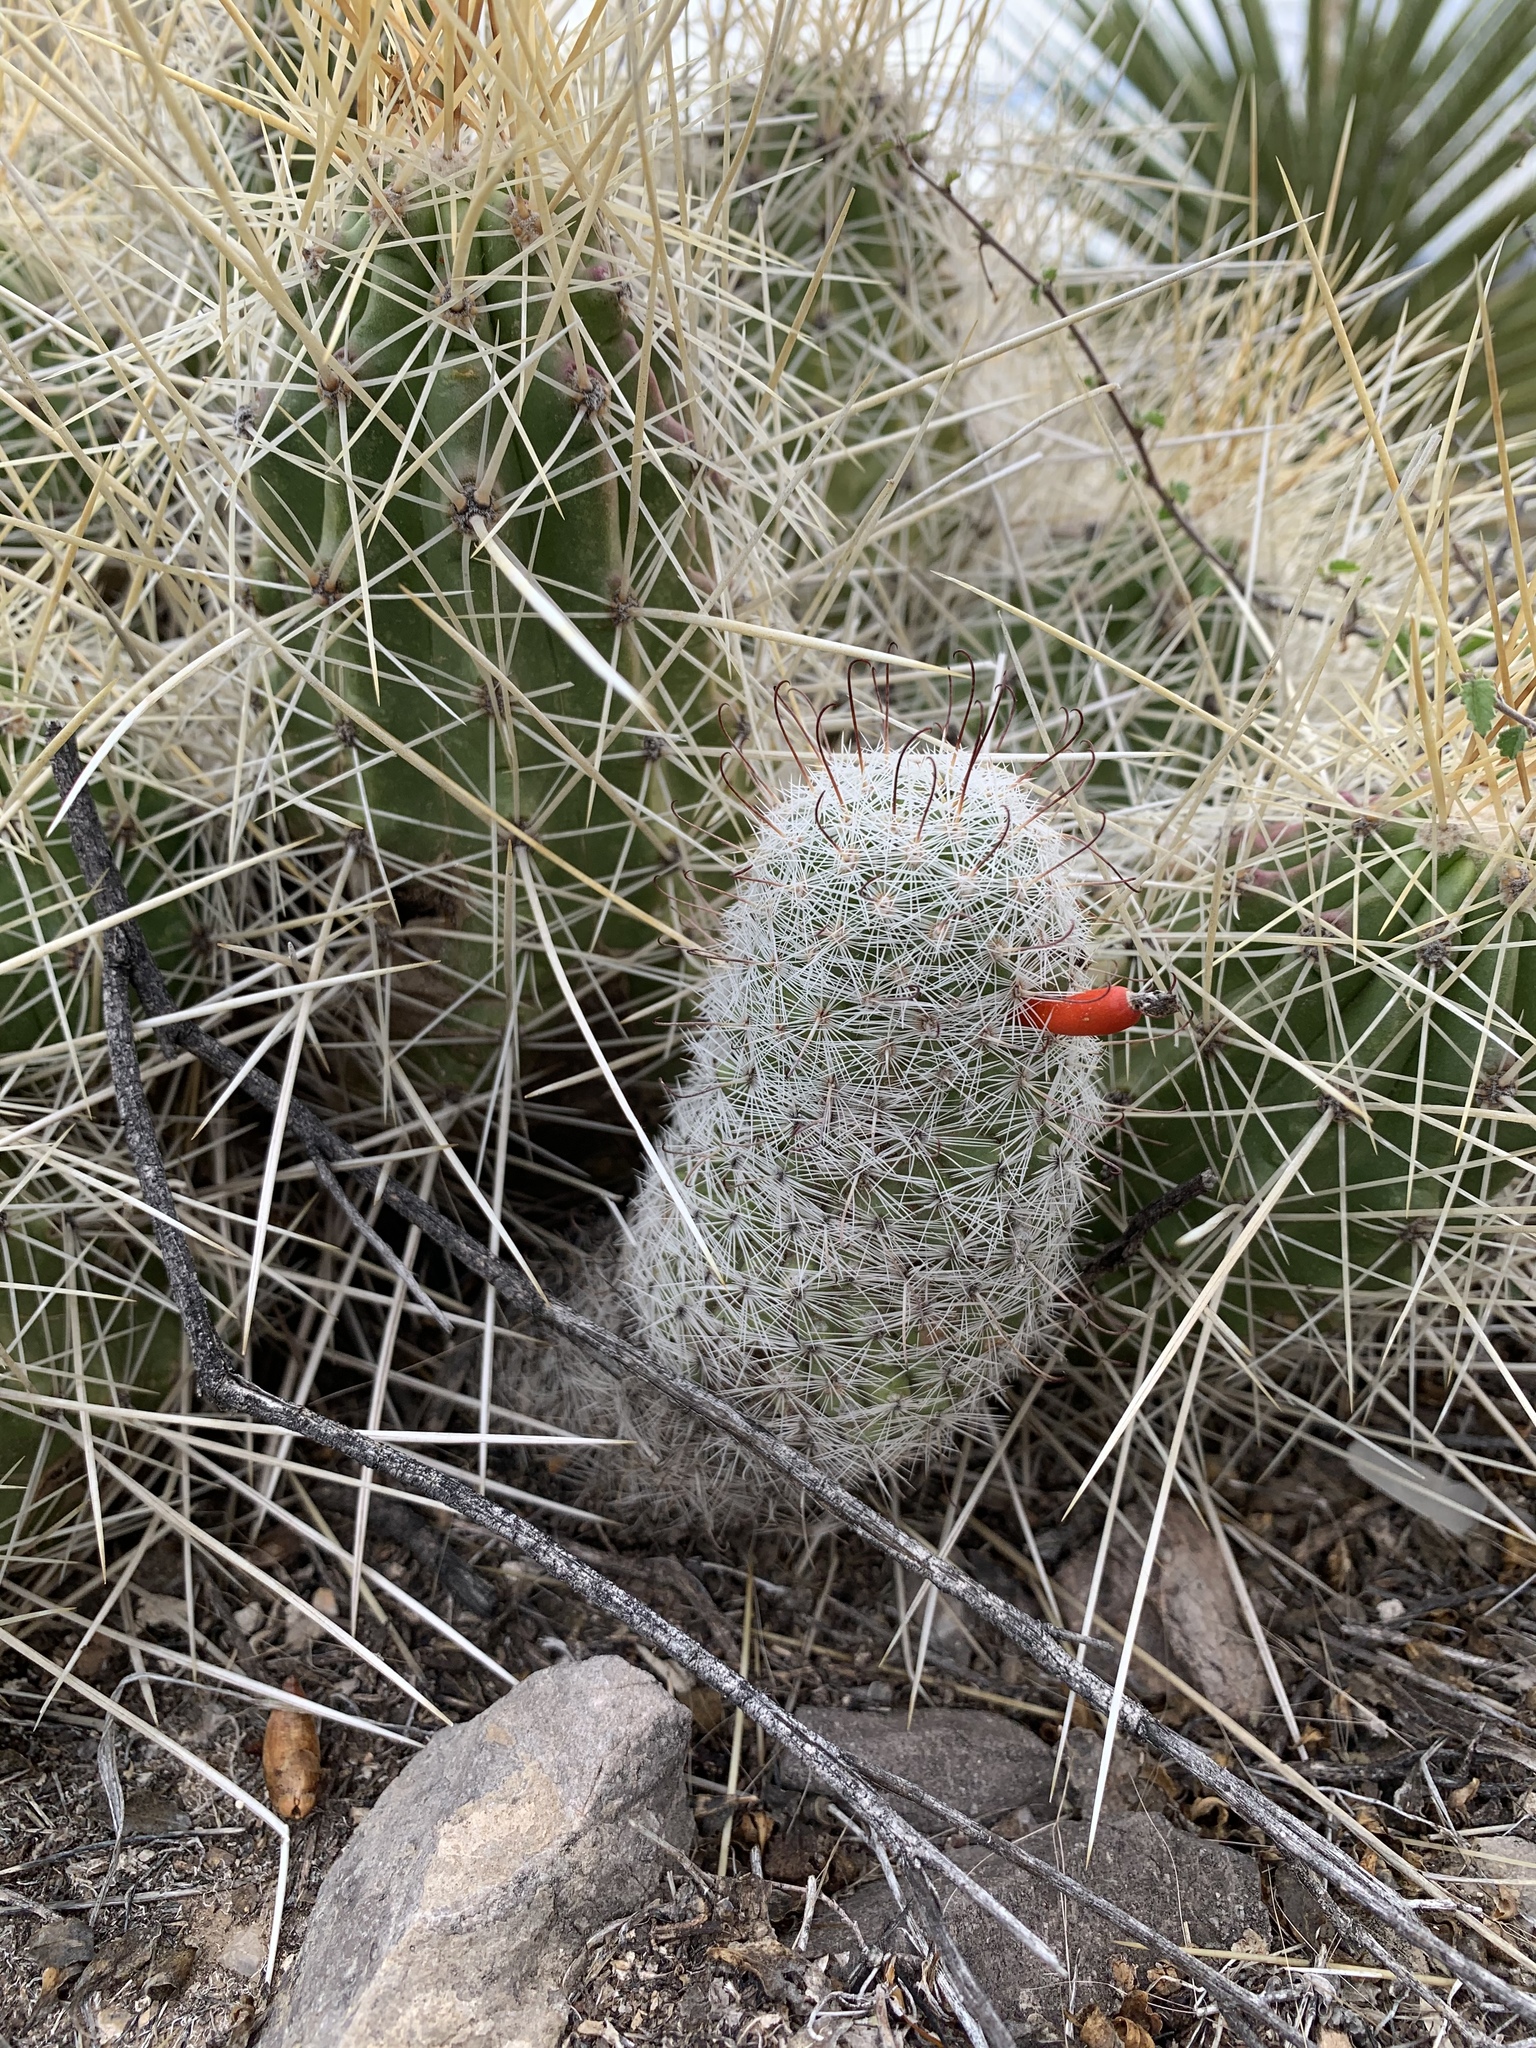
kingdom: Plantae
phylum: Tracheophyta
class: Magnoliopsida
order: Caryophyllales
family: Cactaceae
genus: Cochemiea
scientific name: Cochemiea grahamii
